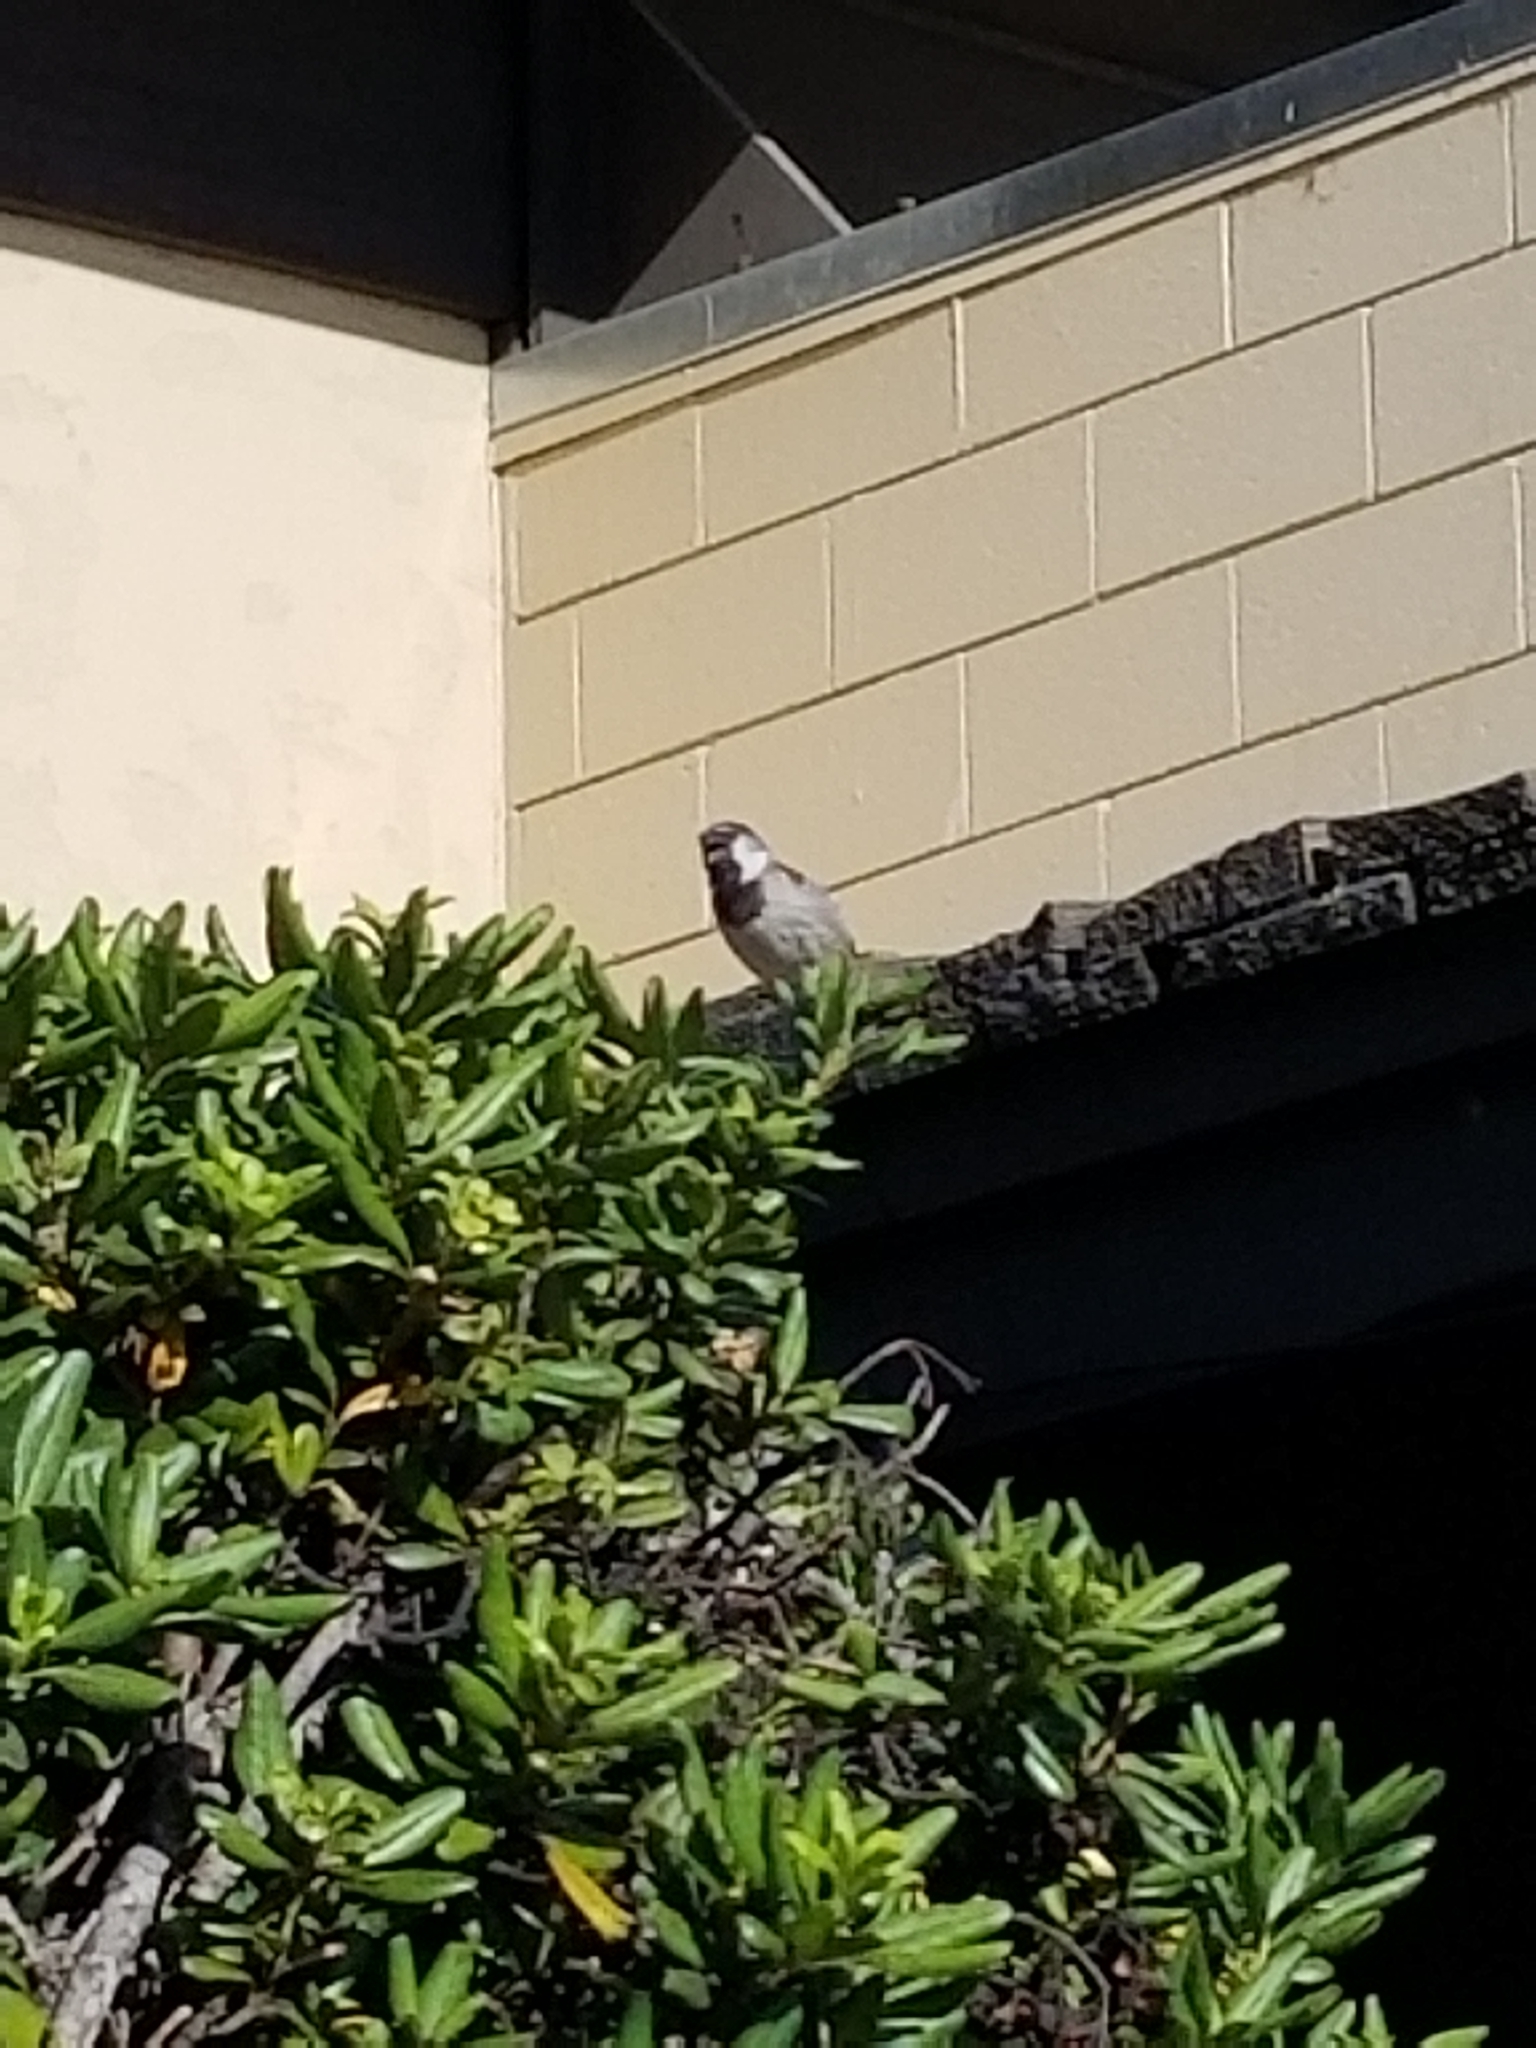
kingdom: Animalia
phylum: Chordata
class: Aves
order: Passeriformes
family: Passeridae
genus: Passer
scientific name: Passer domesticus
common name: House sparrow
